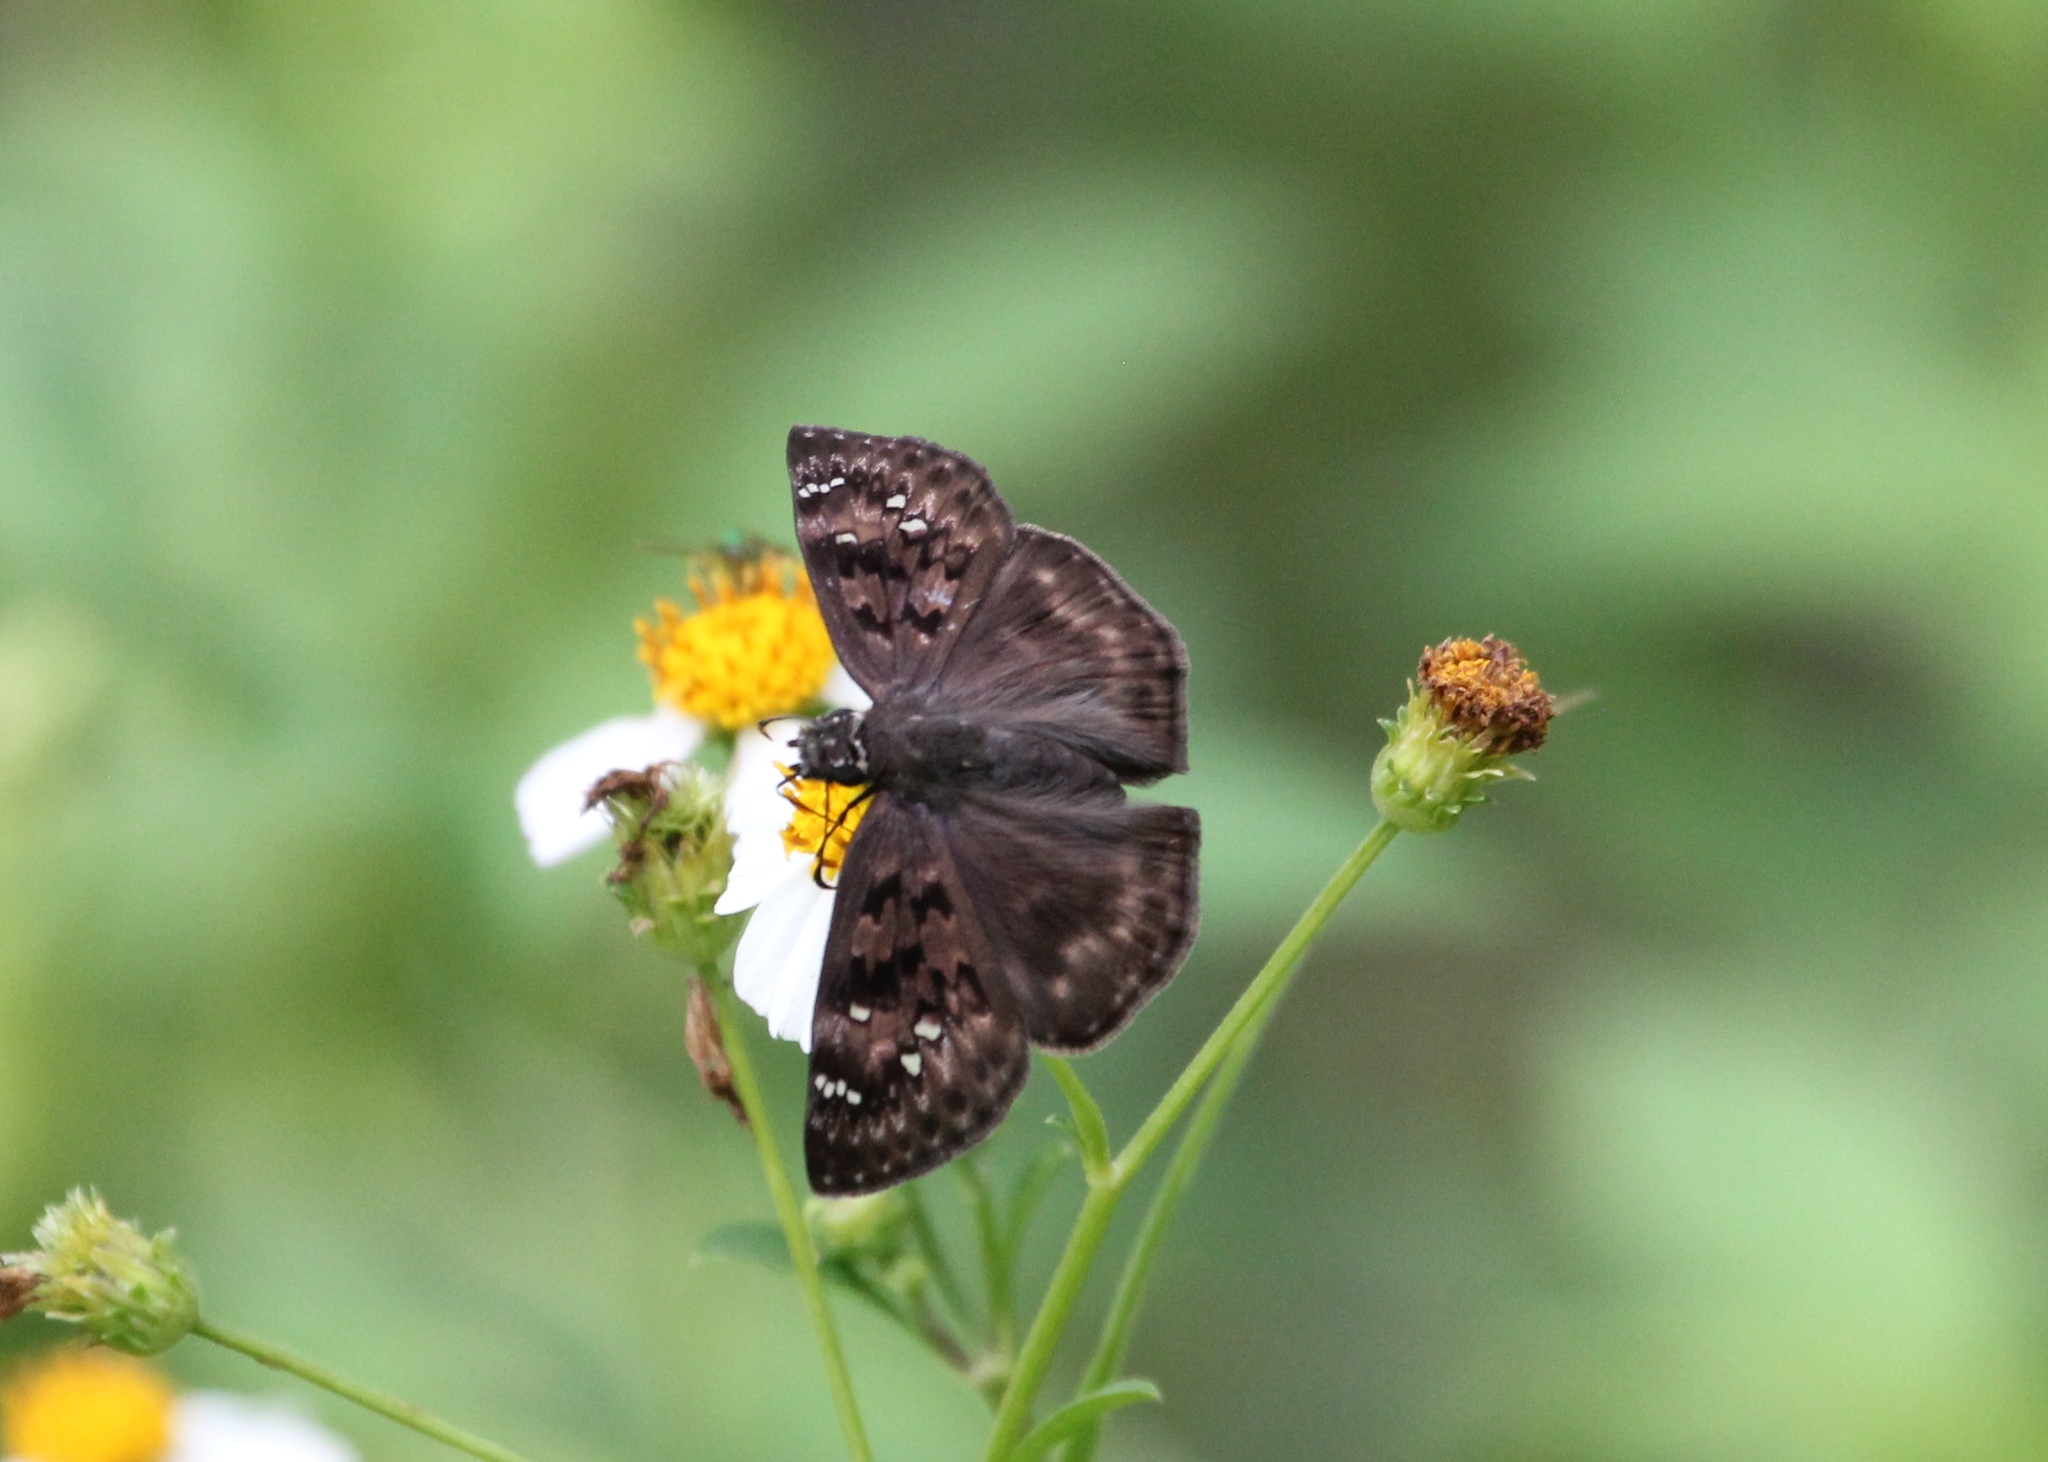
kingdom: Animalia
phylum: Arthropoda
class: Insecta
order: Lepidoptera
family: Hesperiidae
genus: Erynnis
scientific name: Erynnis horatius
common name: Horace's duskywing
